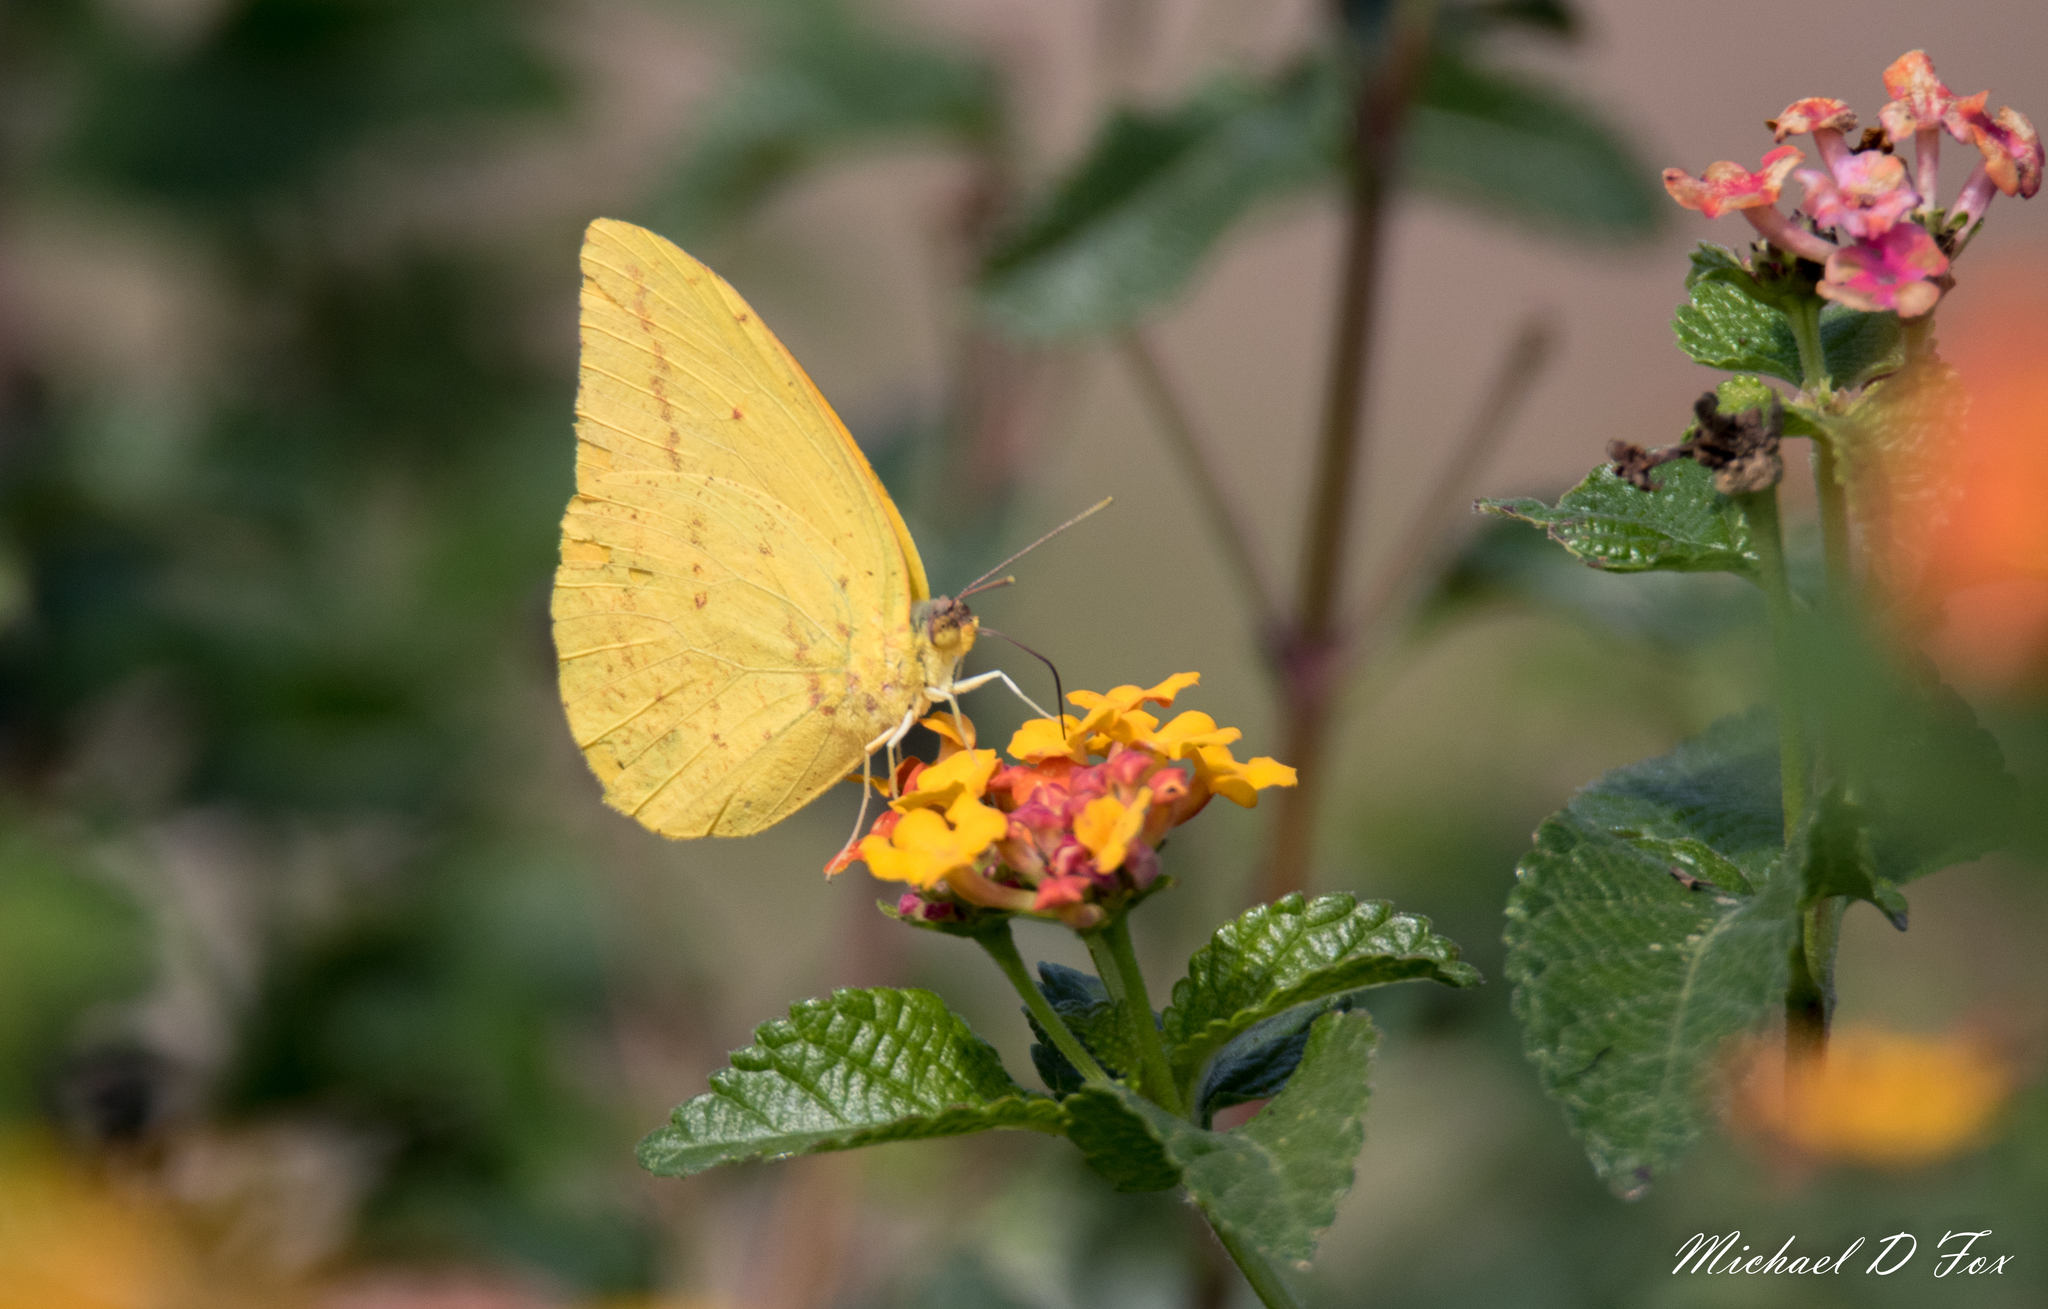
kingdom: Animalia
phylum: Arthropoda
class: Insecta
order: Lepidoptera
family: Pieridae
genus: Phoebis
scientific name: Phoebis agarithe
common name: Large orange sulphur
